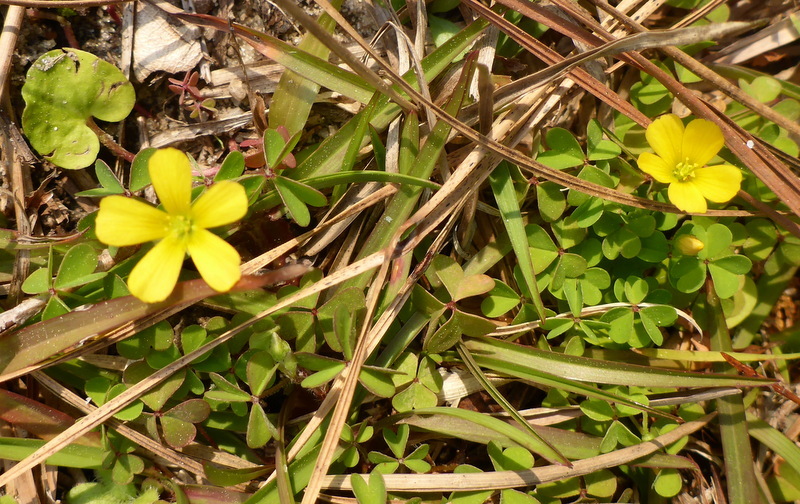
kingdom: Plantae
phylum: Tracheophyta
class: Magnoliopsida
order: Oxalidales
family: Oxalidaceae
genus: Oxalis
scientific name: Oxalis corniculata
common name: Procumbent yellow-sorrel
